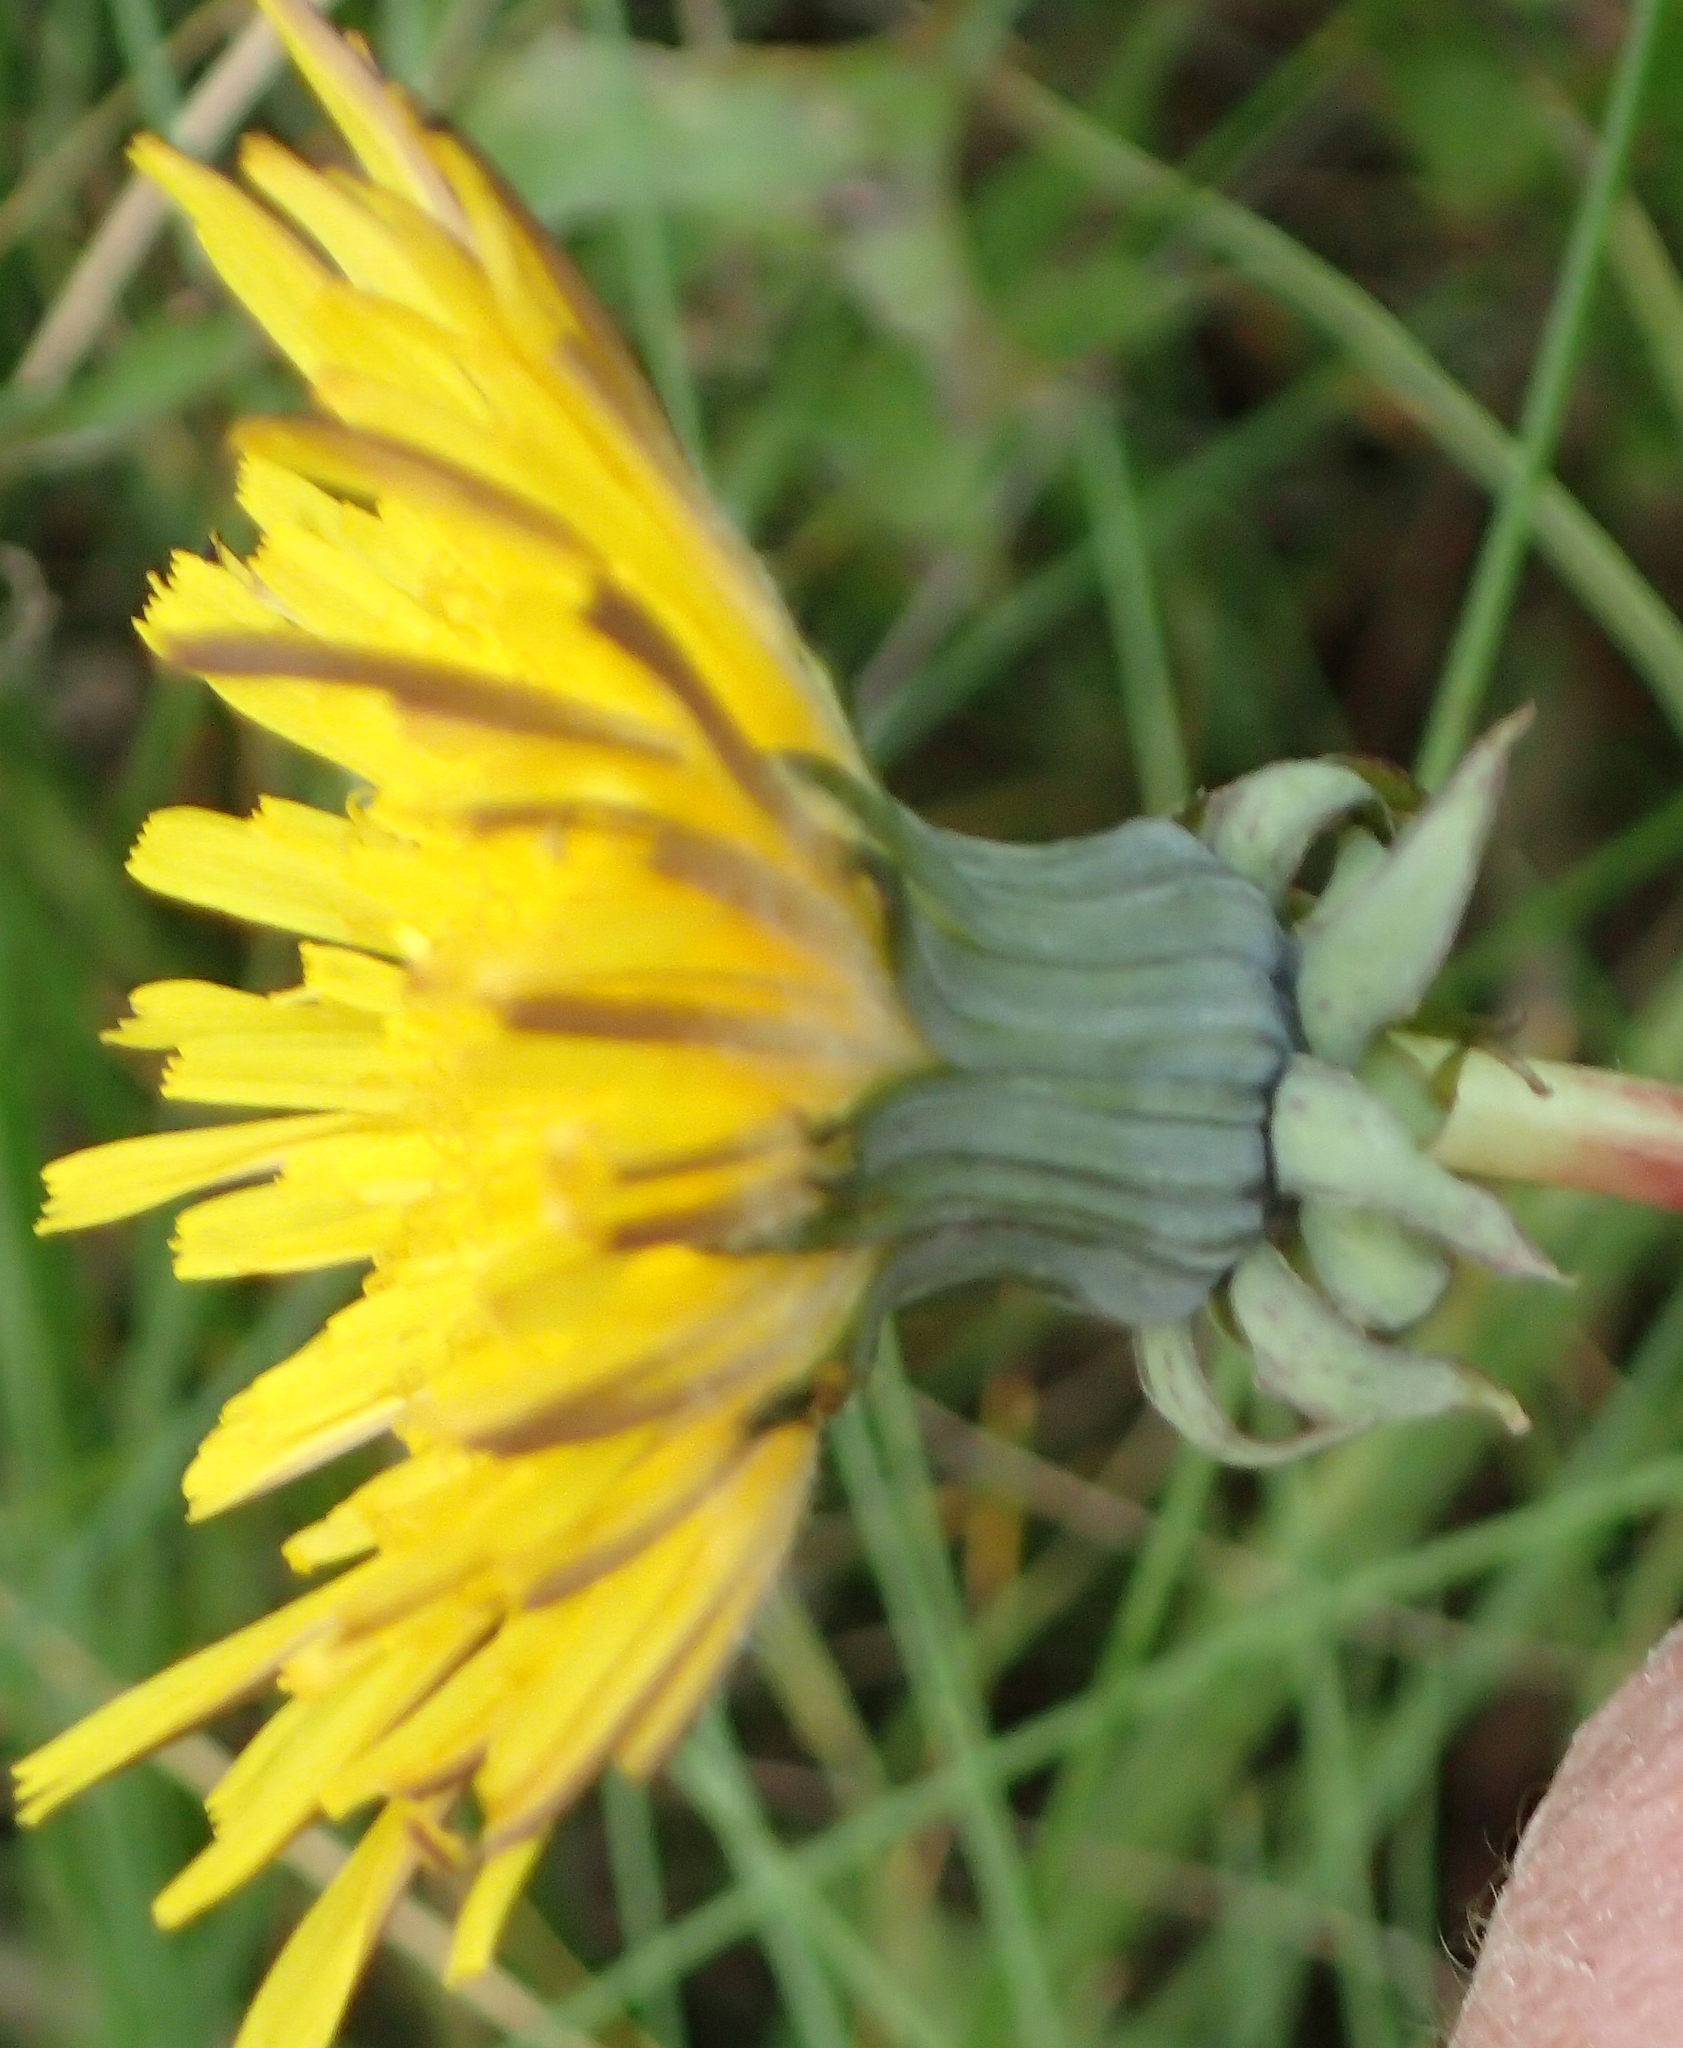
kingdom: Plantae
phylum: Tracheophyta
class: Magnoliopsida
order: Asterales
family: Asteraceae
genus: Taraxacum
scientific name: Taraxacum officinale
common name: Common dandelion
